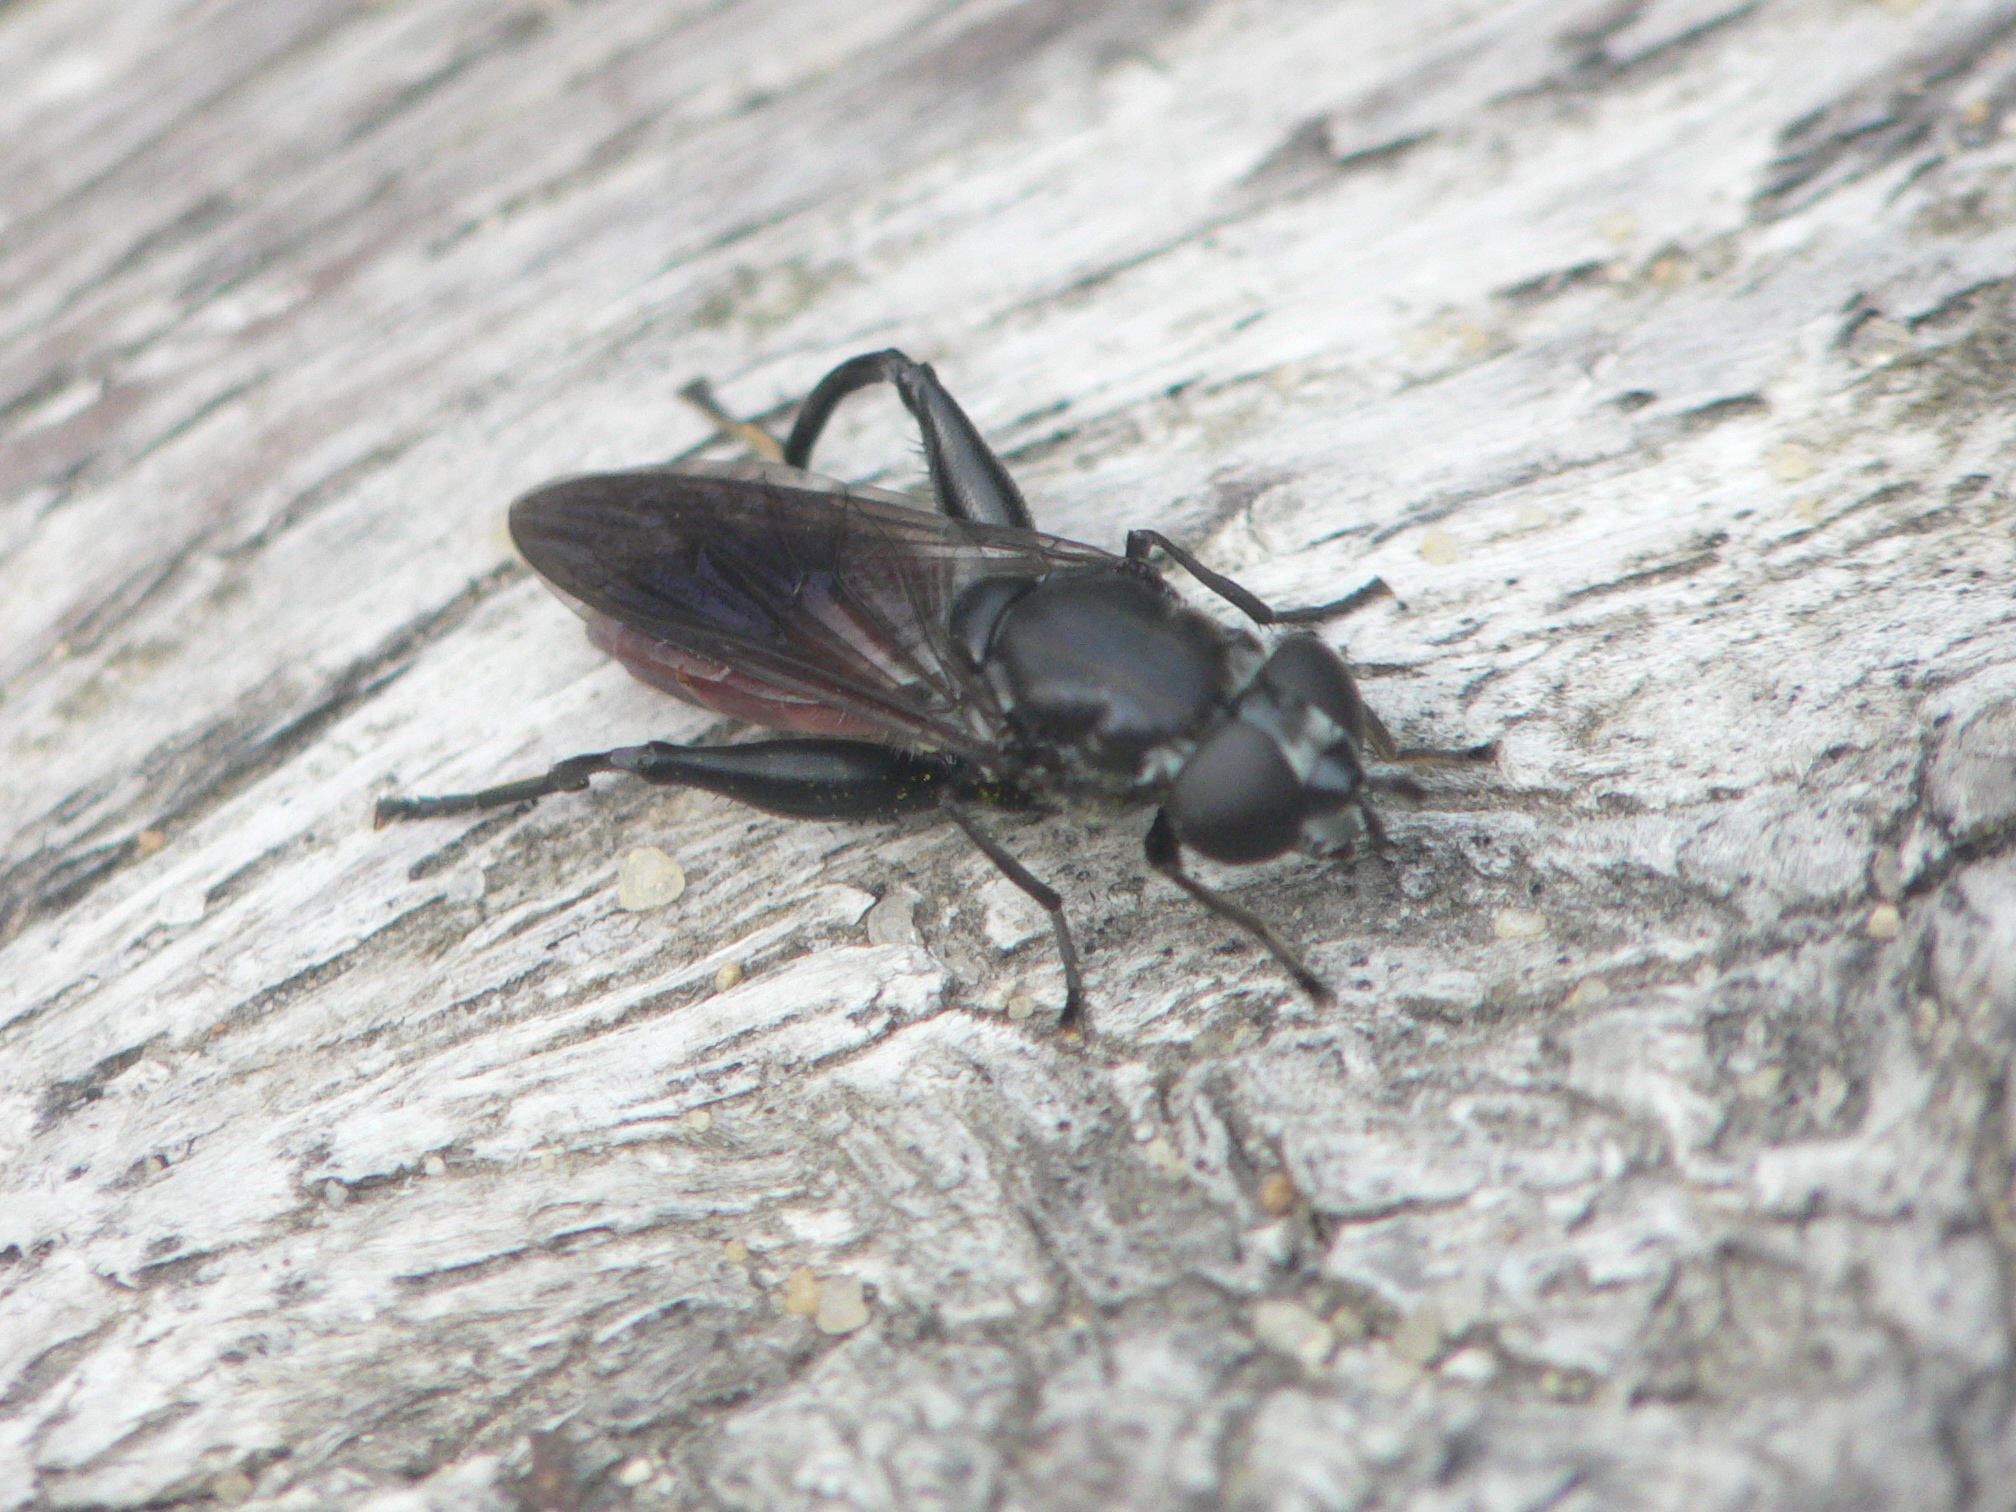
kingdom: Animalia
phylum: Arthropoda
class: Insecta
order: Diptera
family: Syrphidae
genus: Chalcosyrphus
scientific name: Chalcosyrphus piger
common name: Short-haired leafwalker
